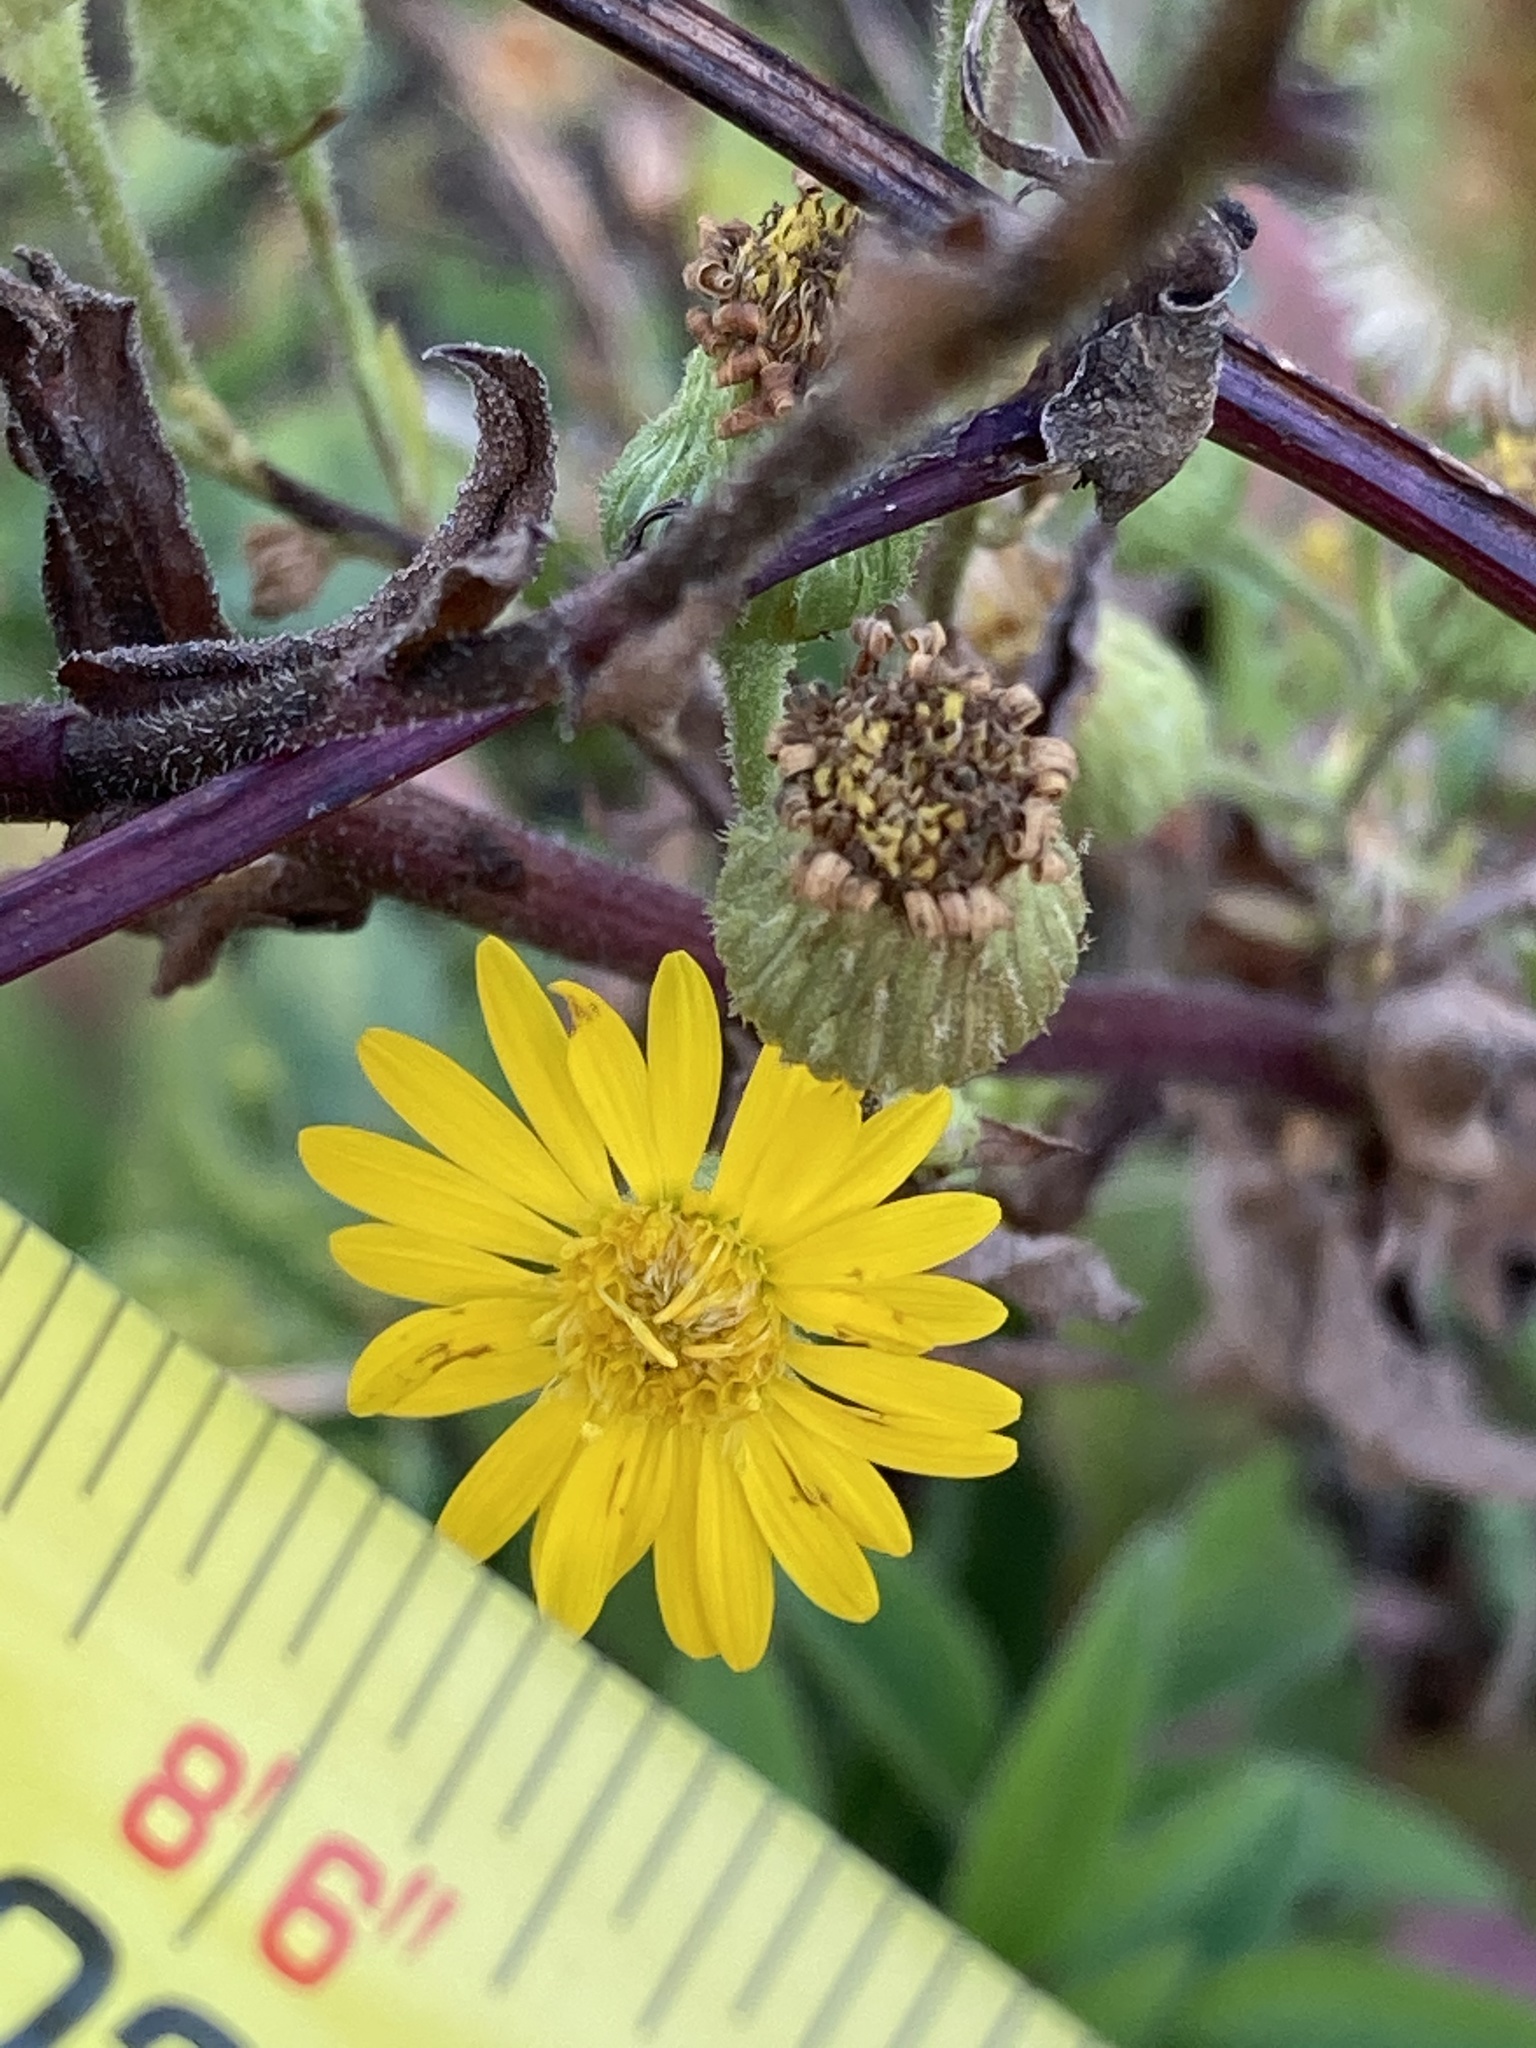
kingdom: Plantae
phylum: Tracheophyta
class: Magnoliopsida
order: Asterales
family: Asteraceae
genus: Heterotheca
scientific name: Heterotheca subaxillaris
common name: Camphorweed
